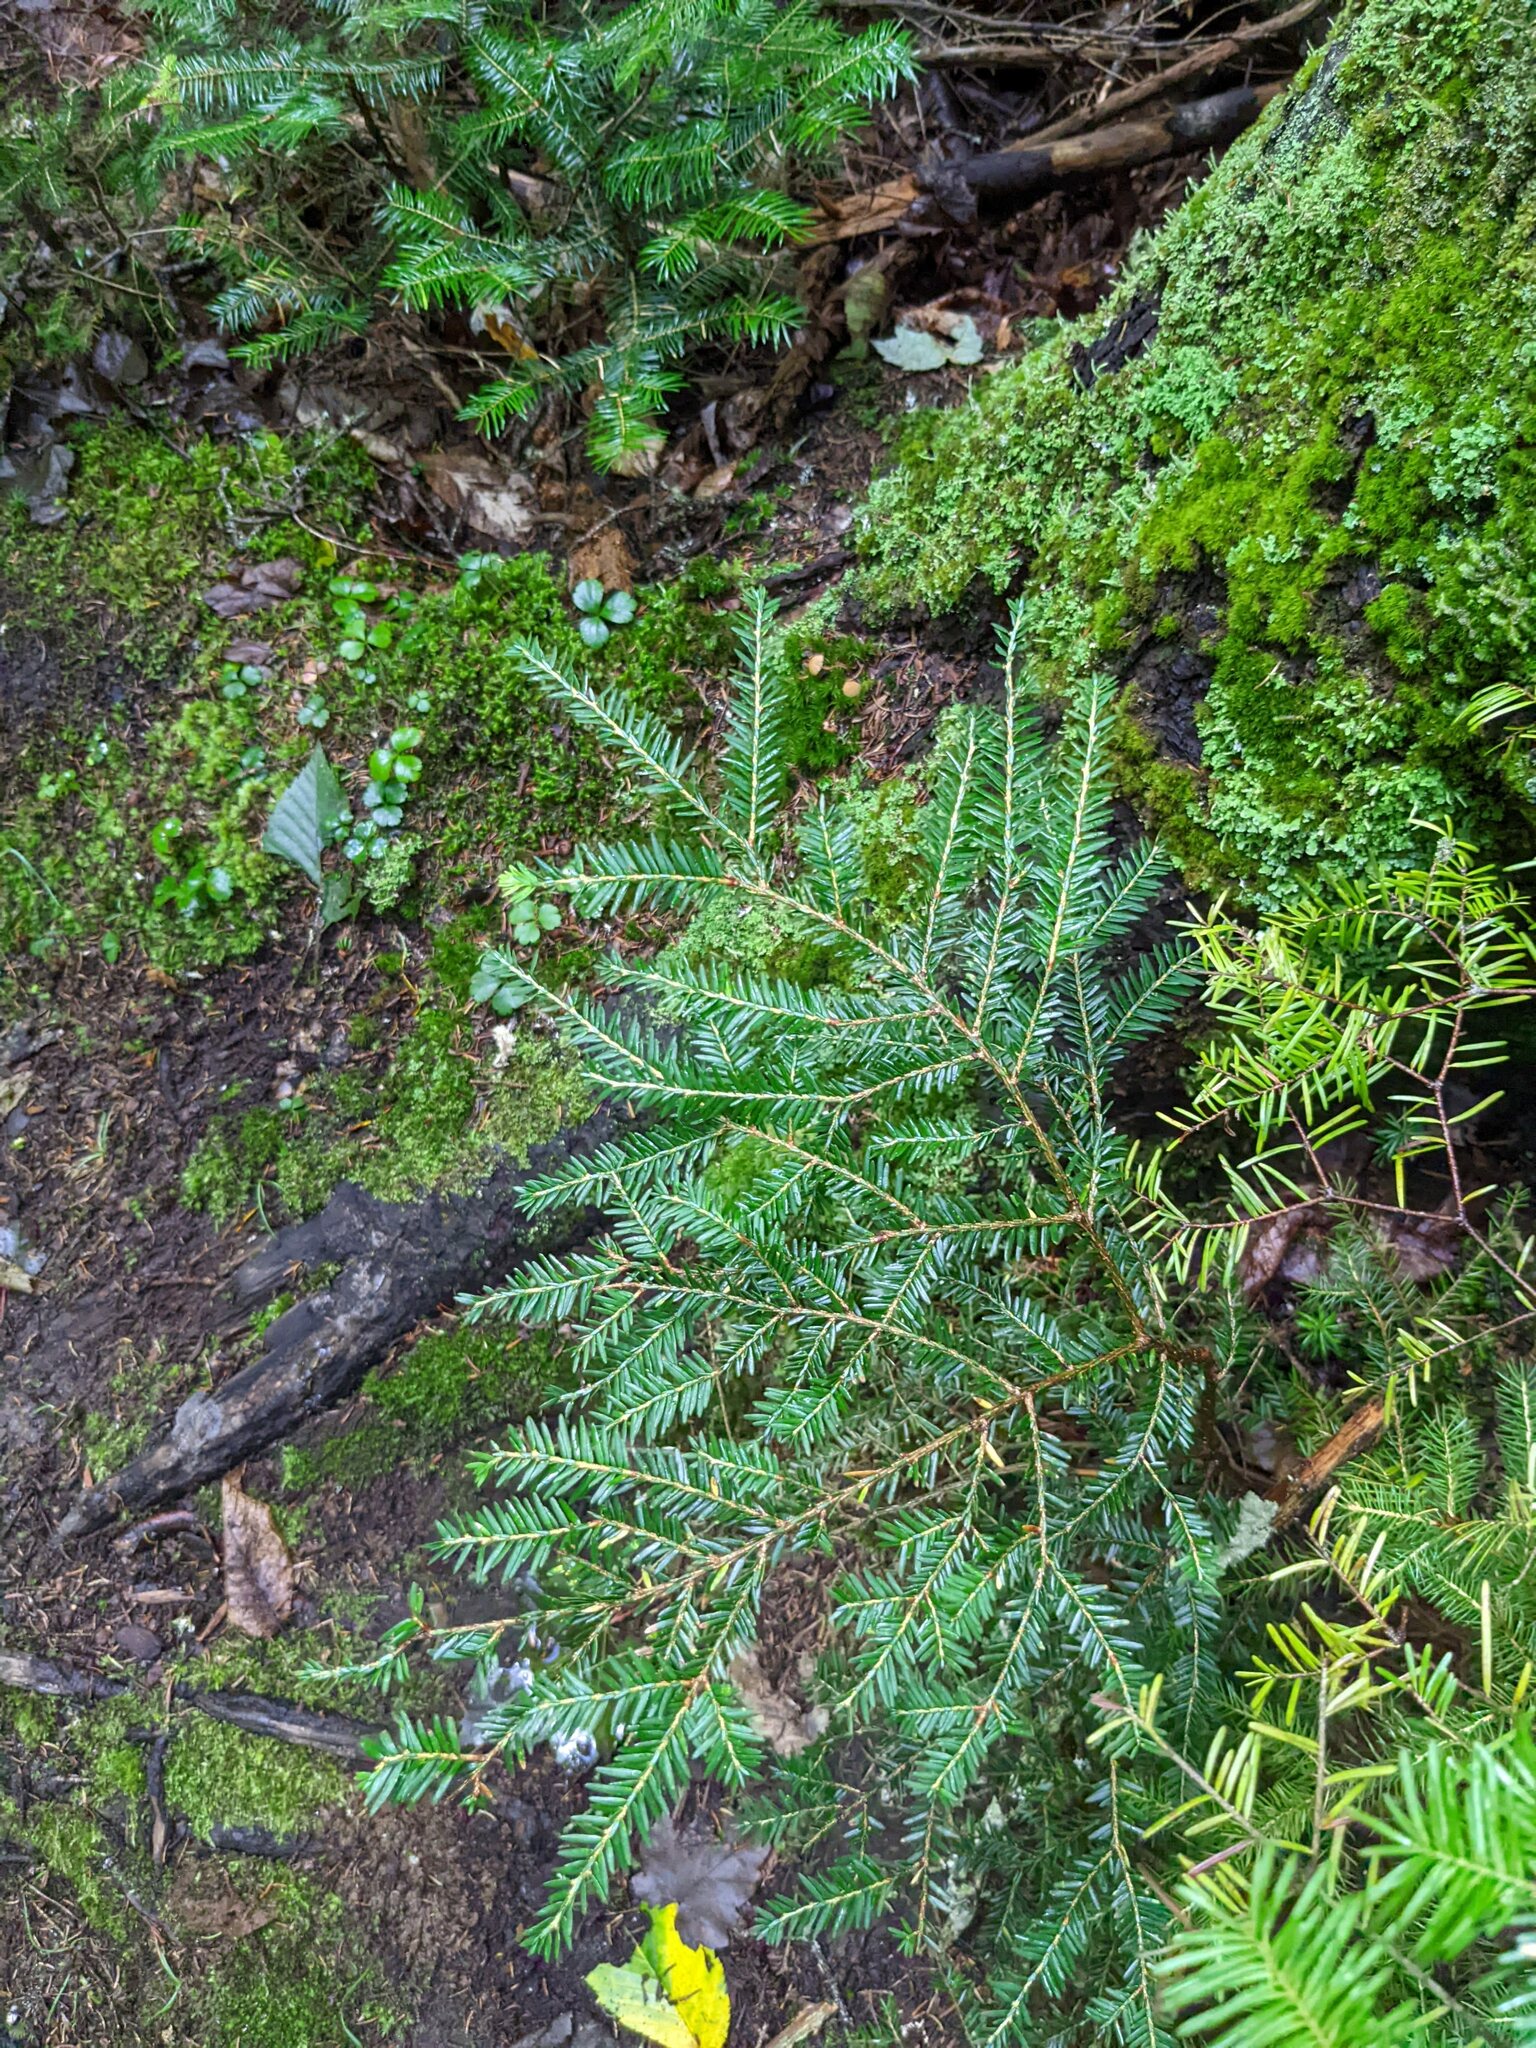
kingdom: Plantae
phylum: Tracheophyta
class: Pinopsida
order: Pinales
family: Pinaceae
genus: Tsuga
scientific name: Tsuga canadensis
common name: Eastern hemlock
